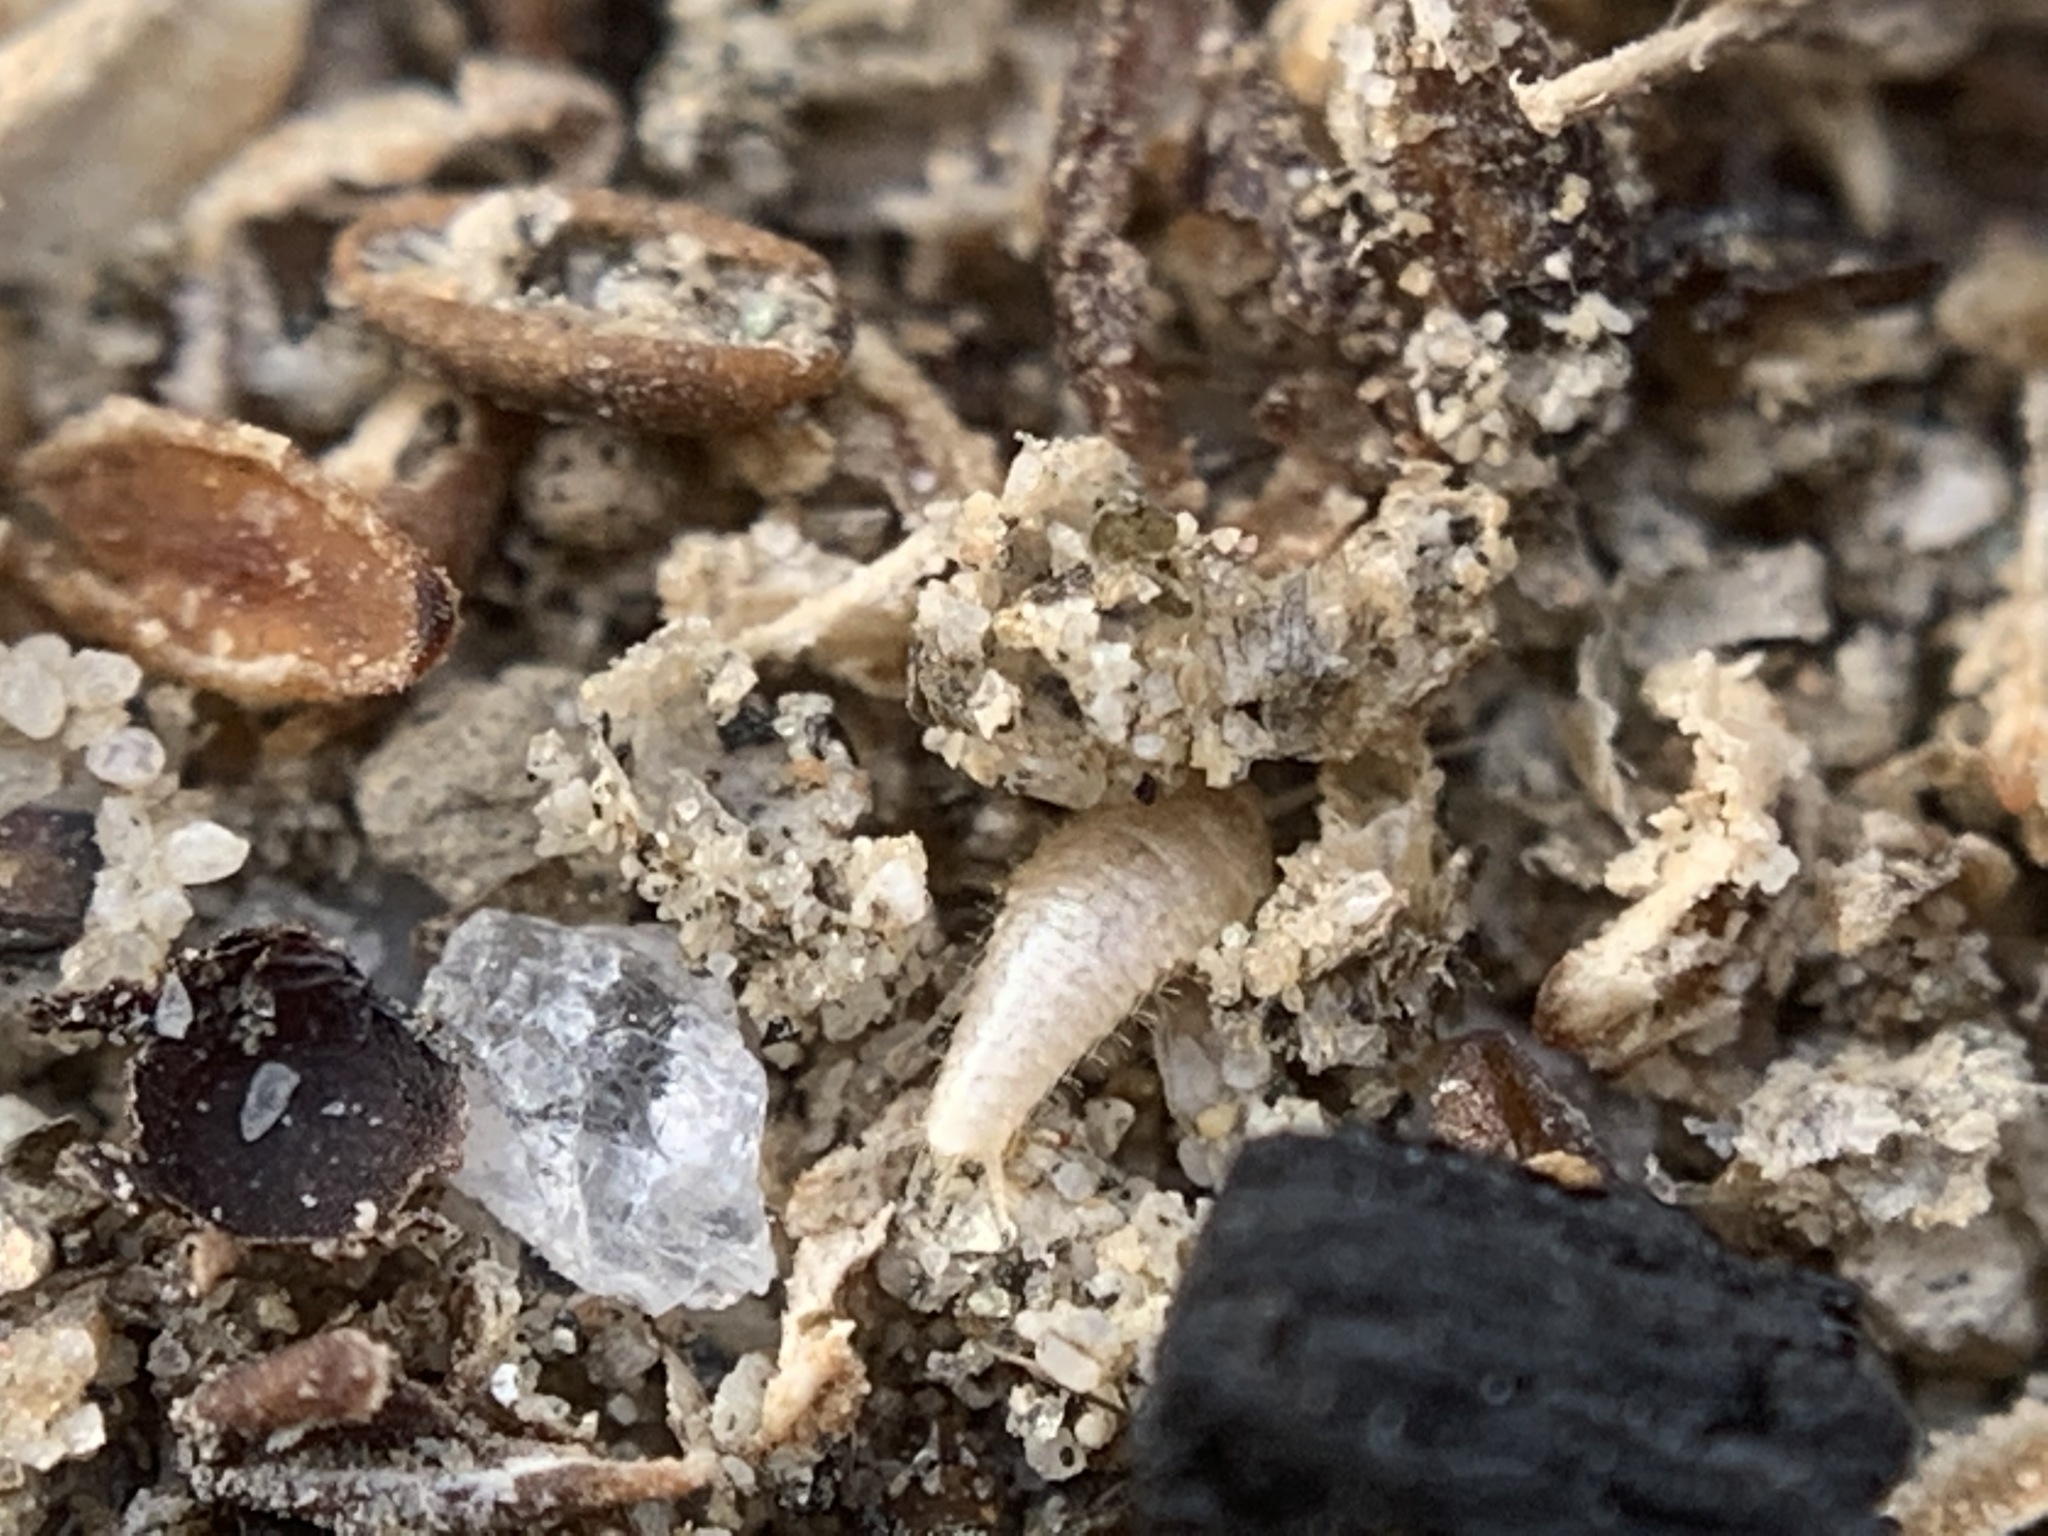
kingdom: Animalia
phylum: Arthropoda
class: Insecta
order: Zygentoma
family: Lepismatidae
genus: Mirolepisma
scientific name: Mirolepisma deserticola
